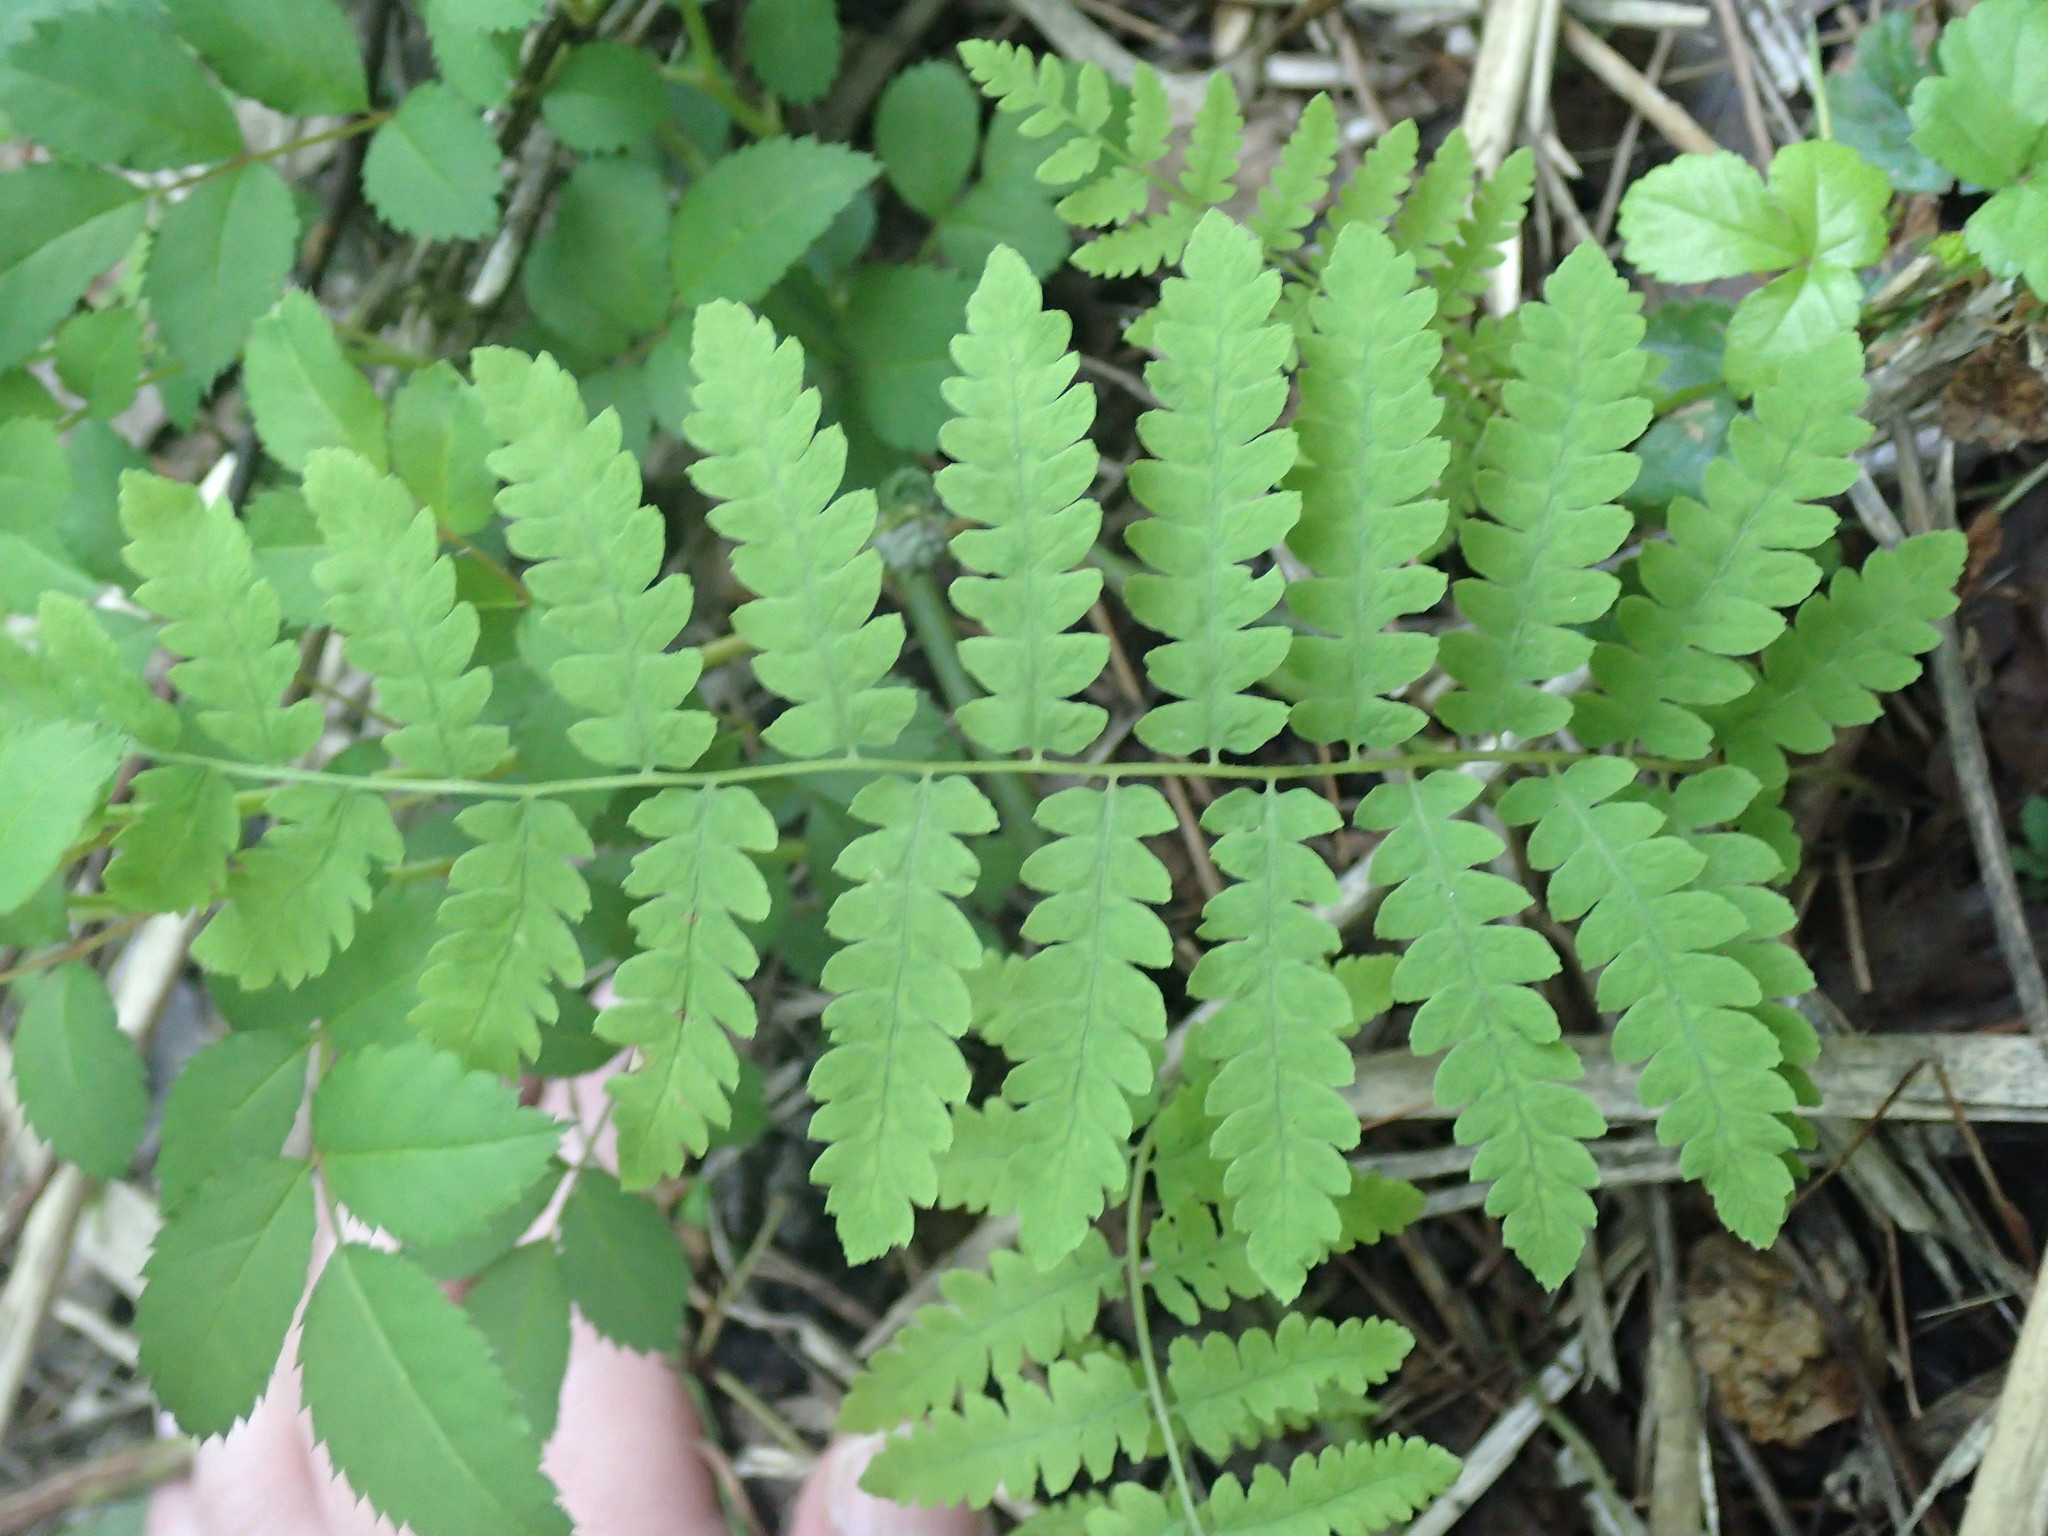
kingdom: Plantae
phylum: Tracheophyta
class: Polypodiopsida
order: Polypodiales
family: Thelypteridaceae
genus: Thelypteris
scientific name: Thelypteris palustris
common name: Marsh fern
